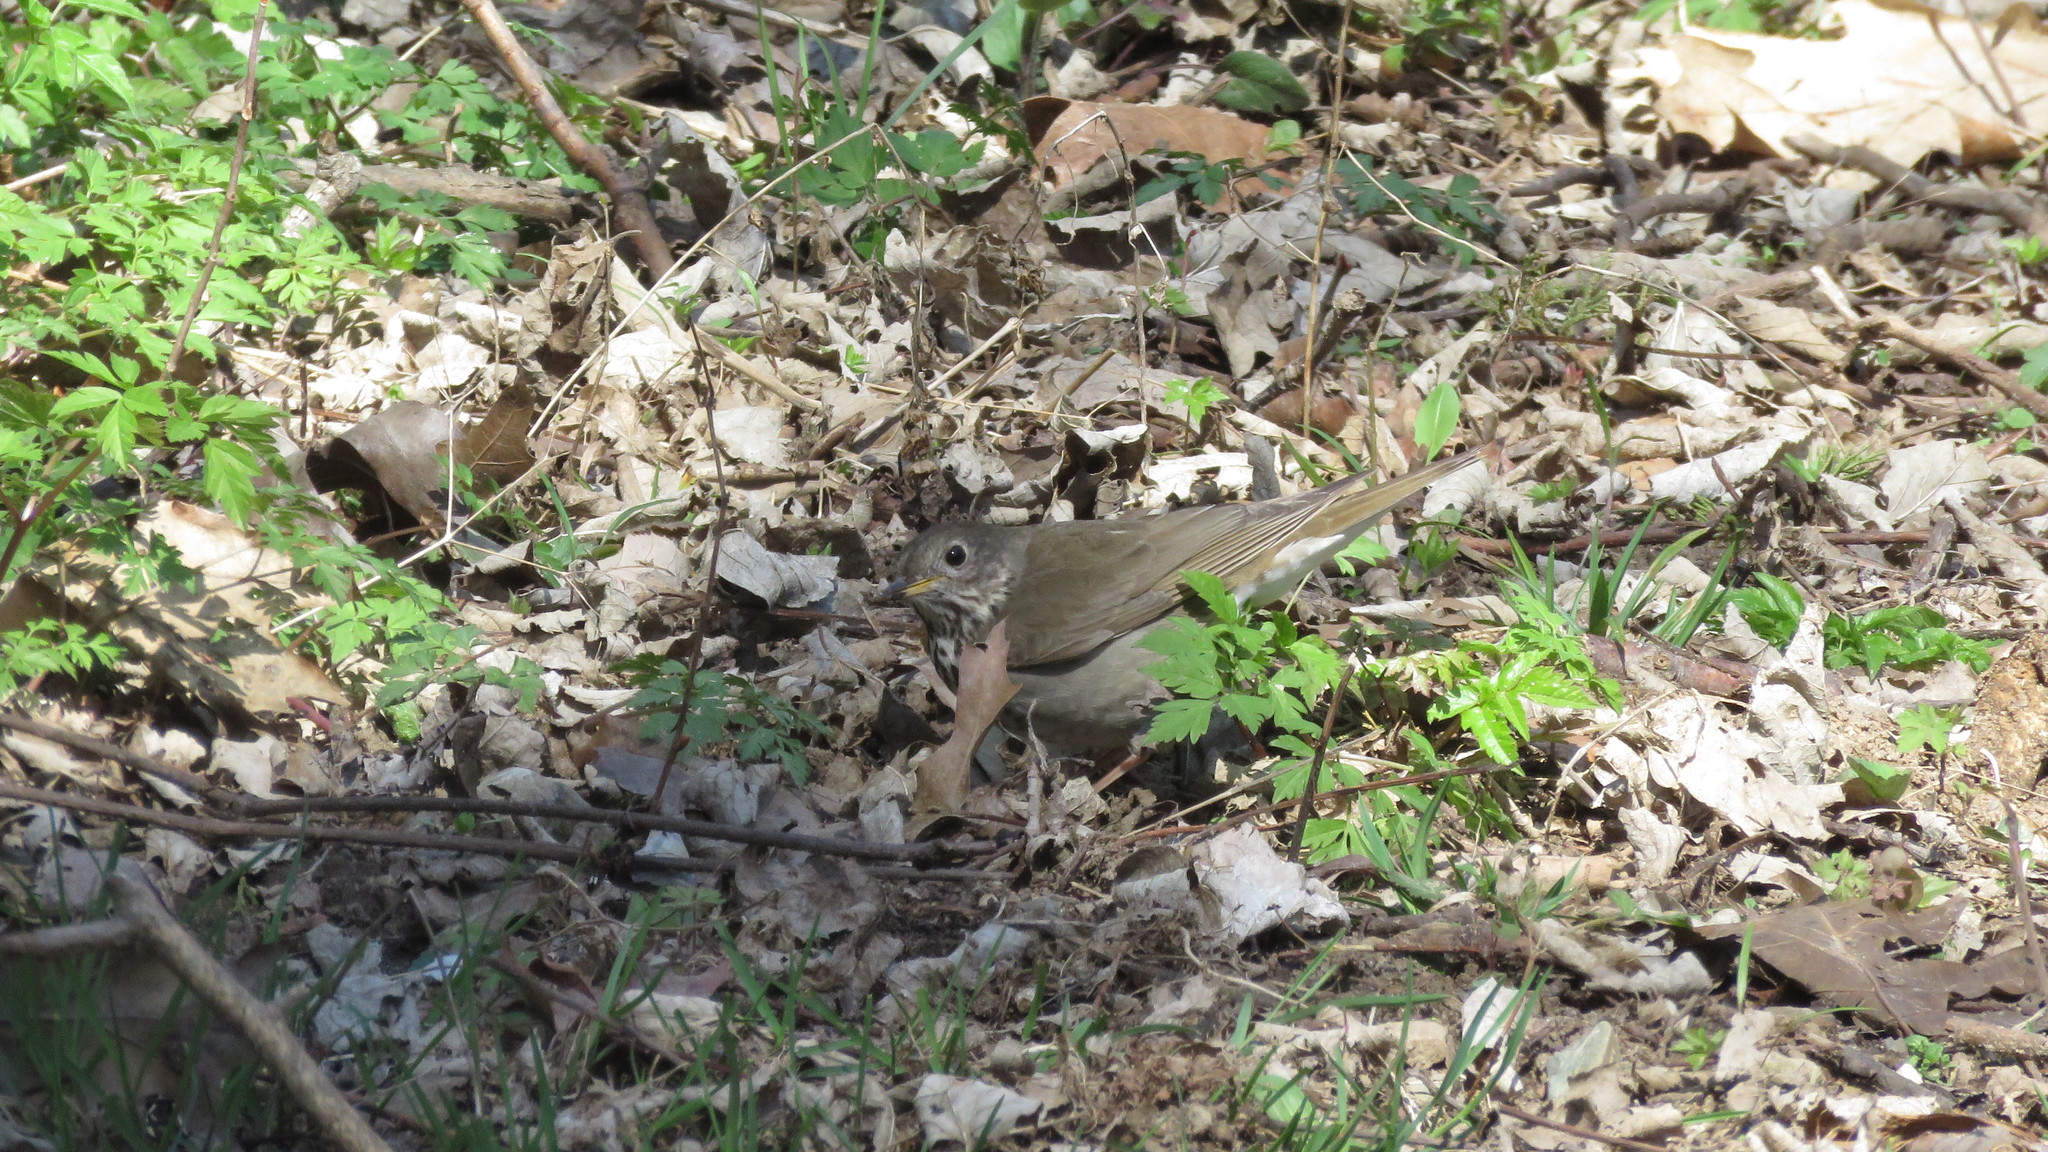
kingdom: Animalia
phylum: Chordata
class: Aves
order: Passeriformes
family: Turdidae
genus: Catharus
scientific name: Catharus minimus
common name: Grey-cheeked thrush
